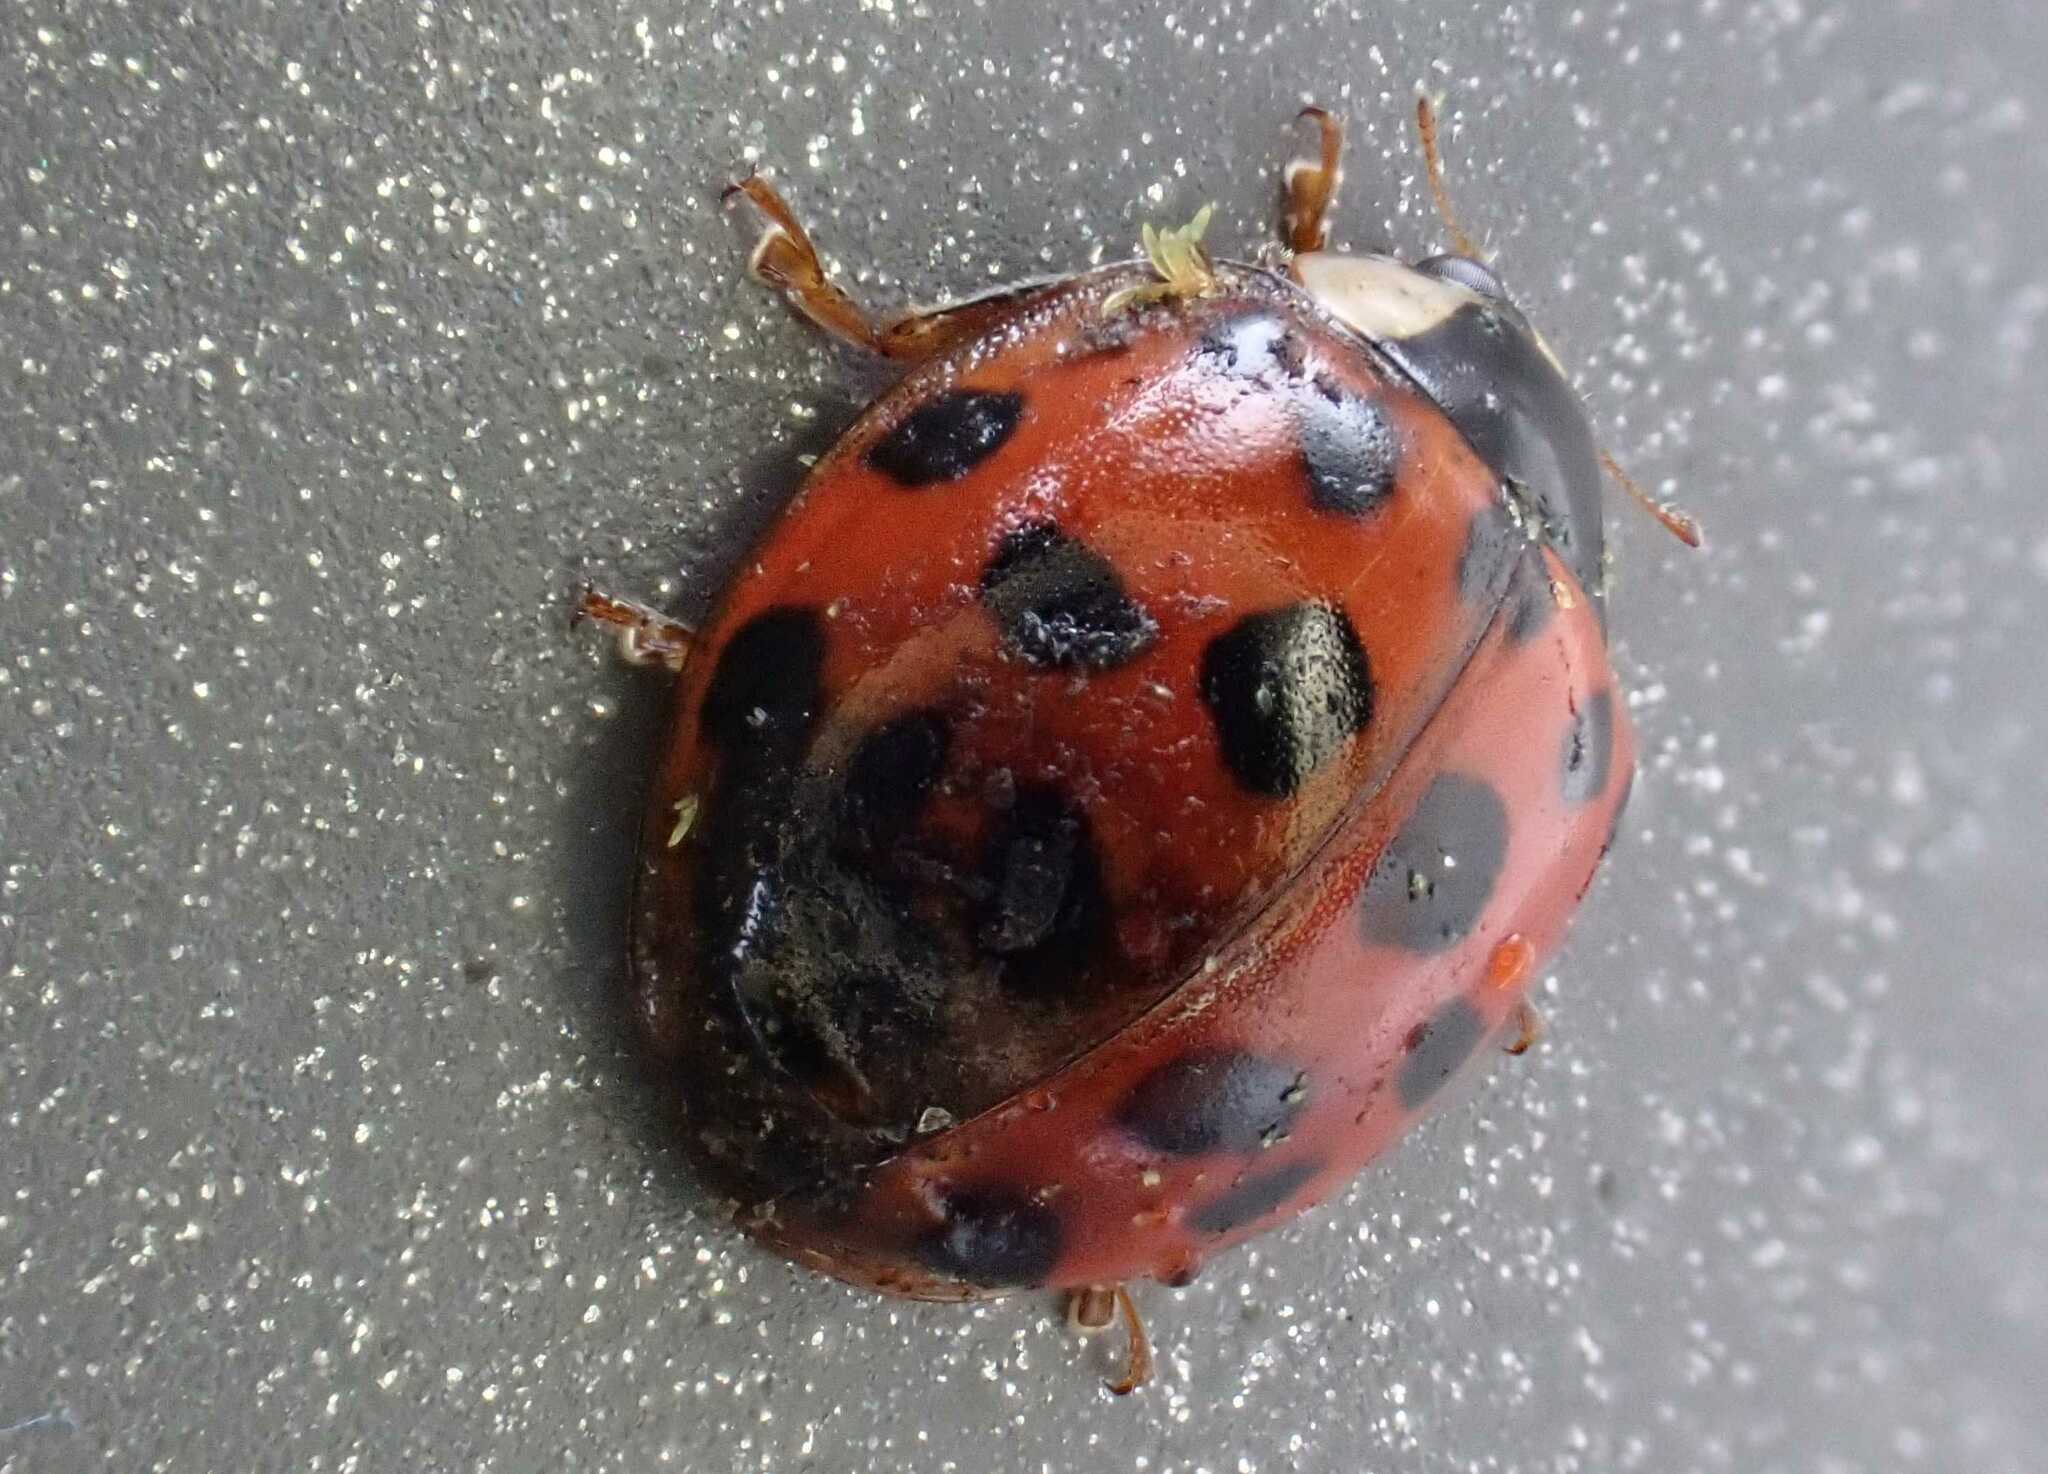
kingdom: Fungi
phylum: Ascomycota
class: Laboulbeniomycetes
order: Laboulbeniales
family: Laboulbeniaceae
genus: Hesperomyces
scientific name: Hesperomyces harmoniae
